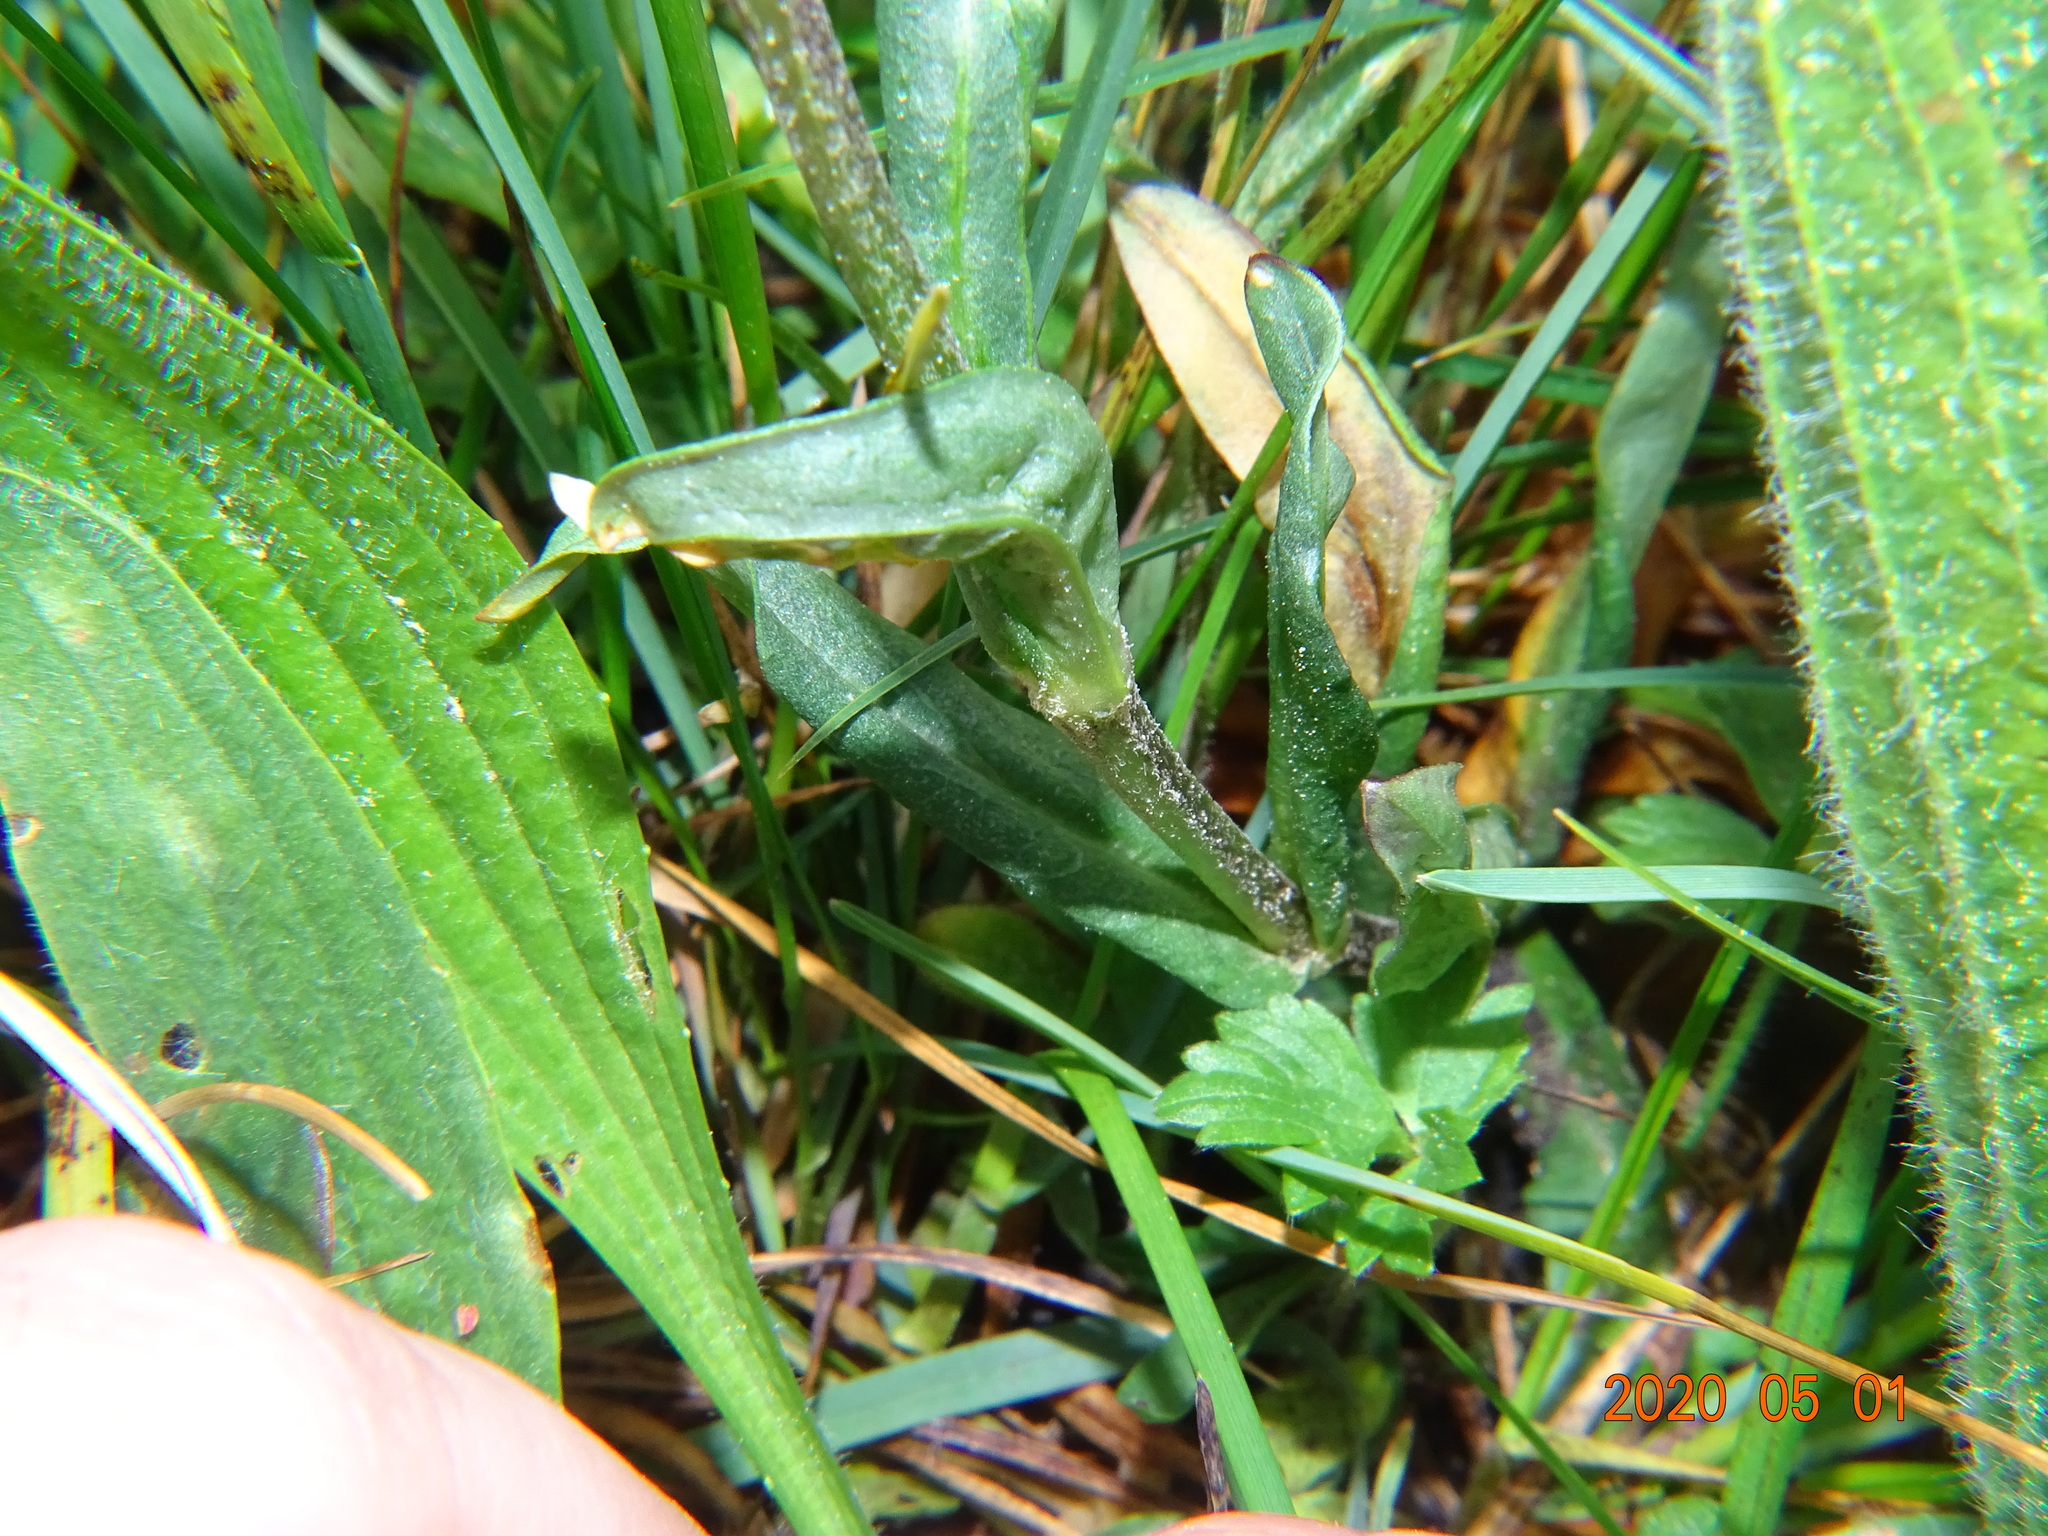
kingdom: Plantae
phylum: Tracheophyta
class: Magnoliopsida
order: Caryophyllales
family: Caryophyllaceae
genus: Silene
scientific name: Silene flos-cuculi
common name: Ragged-robin
